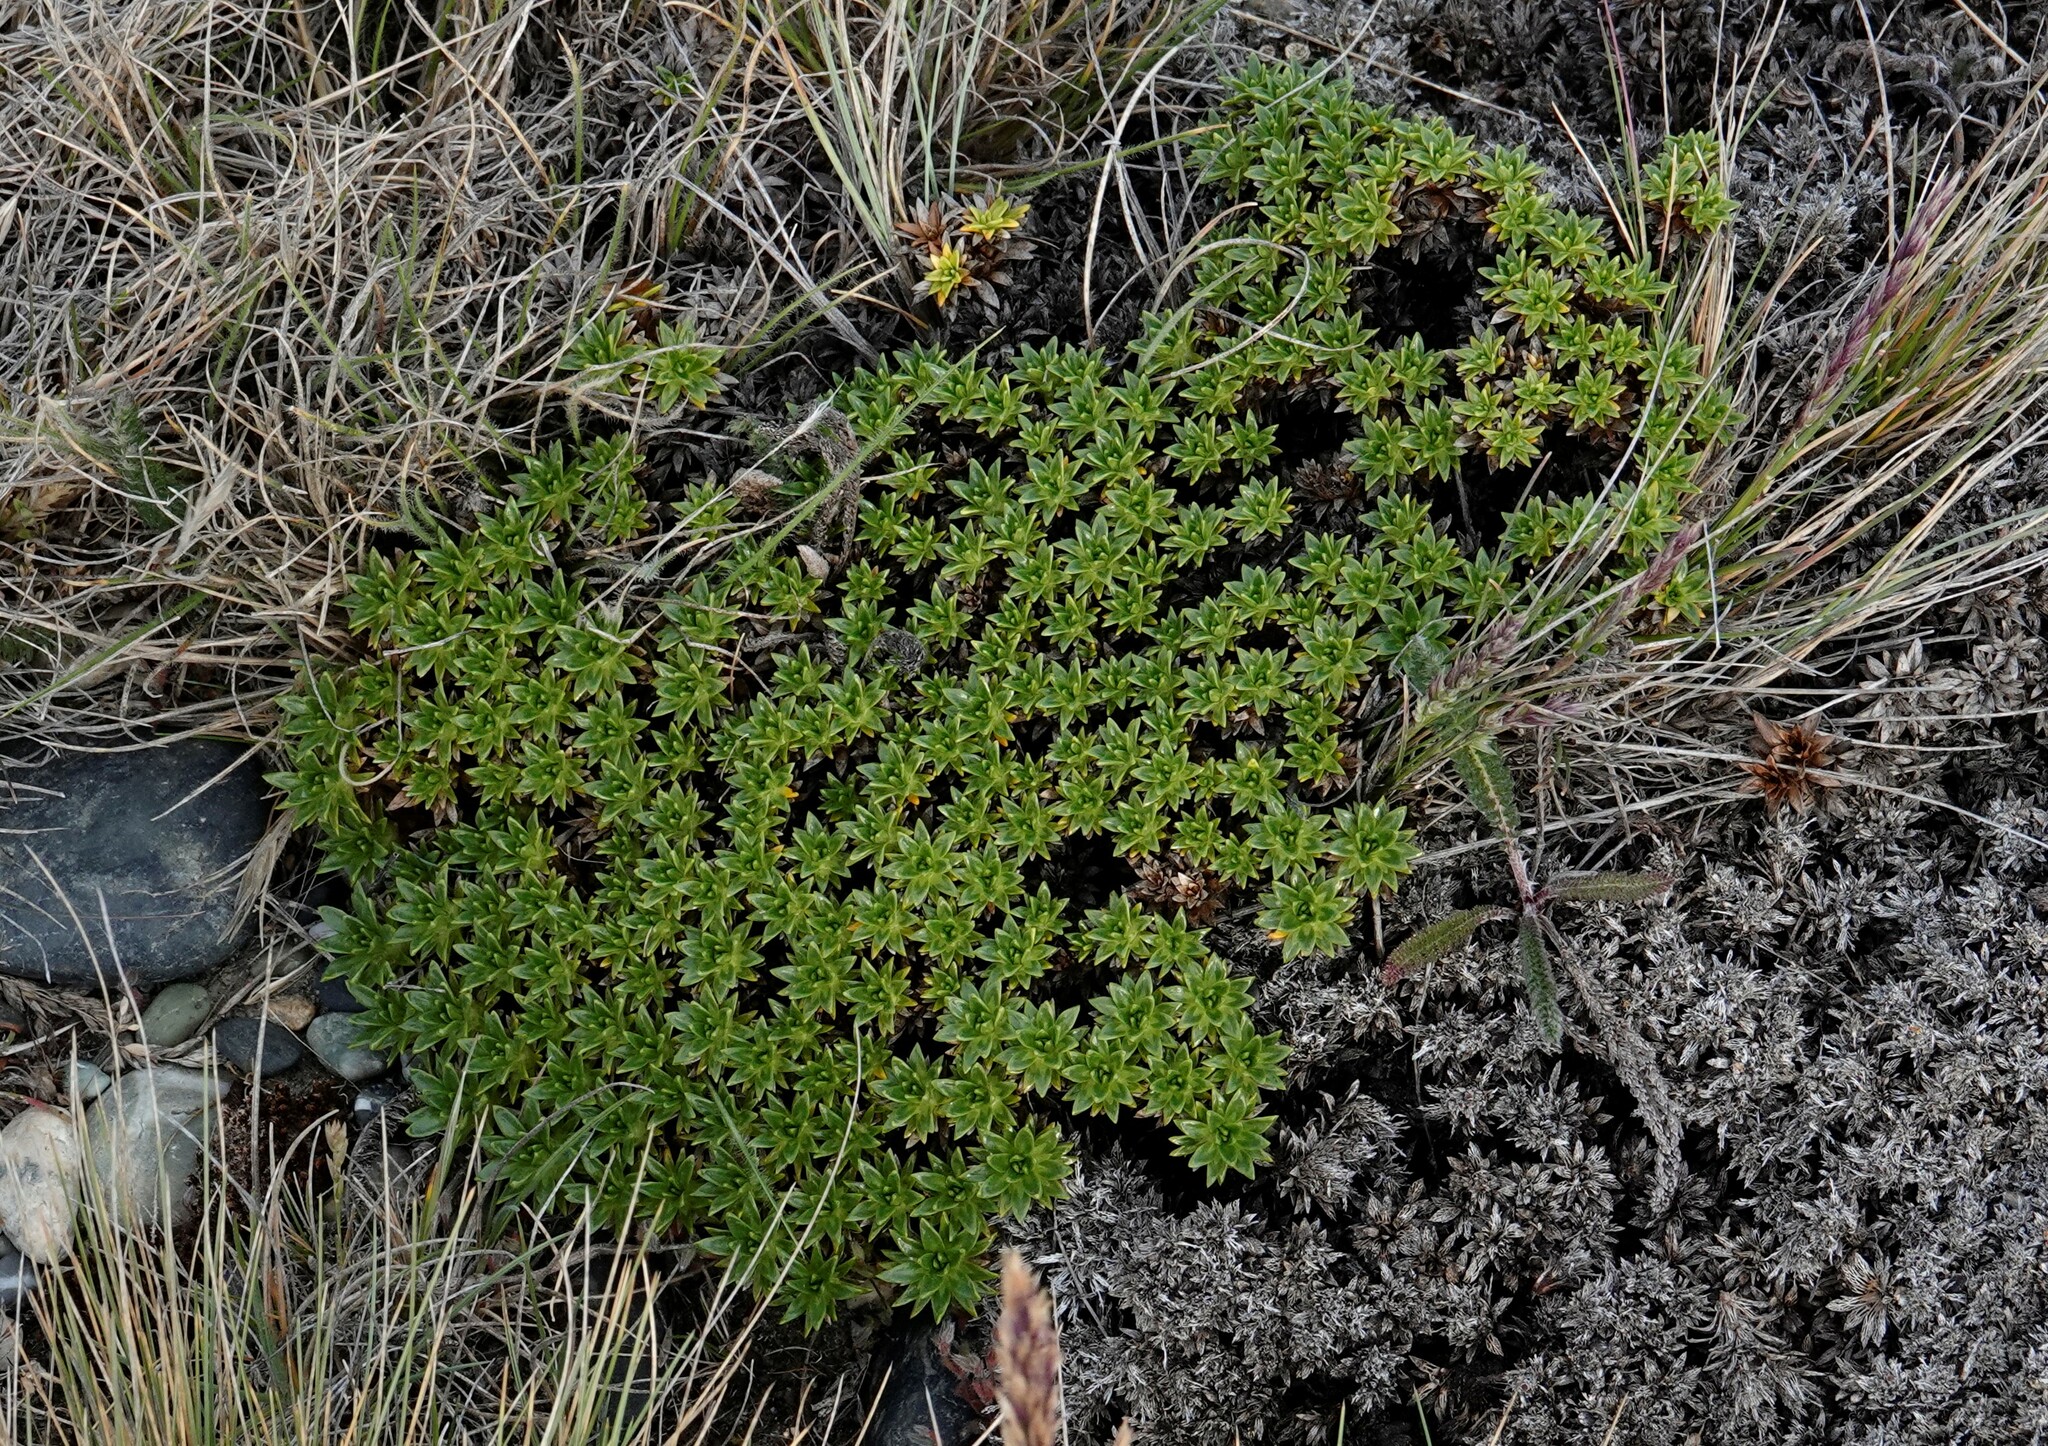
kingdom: Plantae
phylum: Tracheophyta
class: Magnoliopsida
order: Apiales
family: Apiaceae
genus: Azorella
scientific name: Azorella monantha
